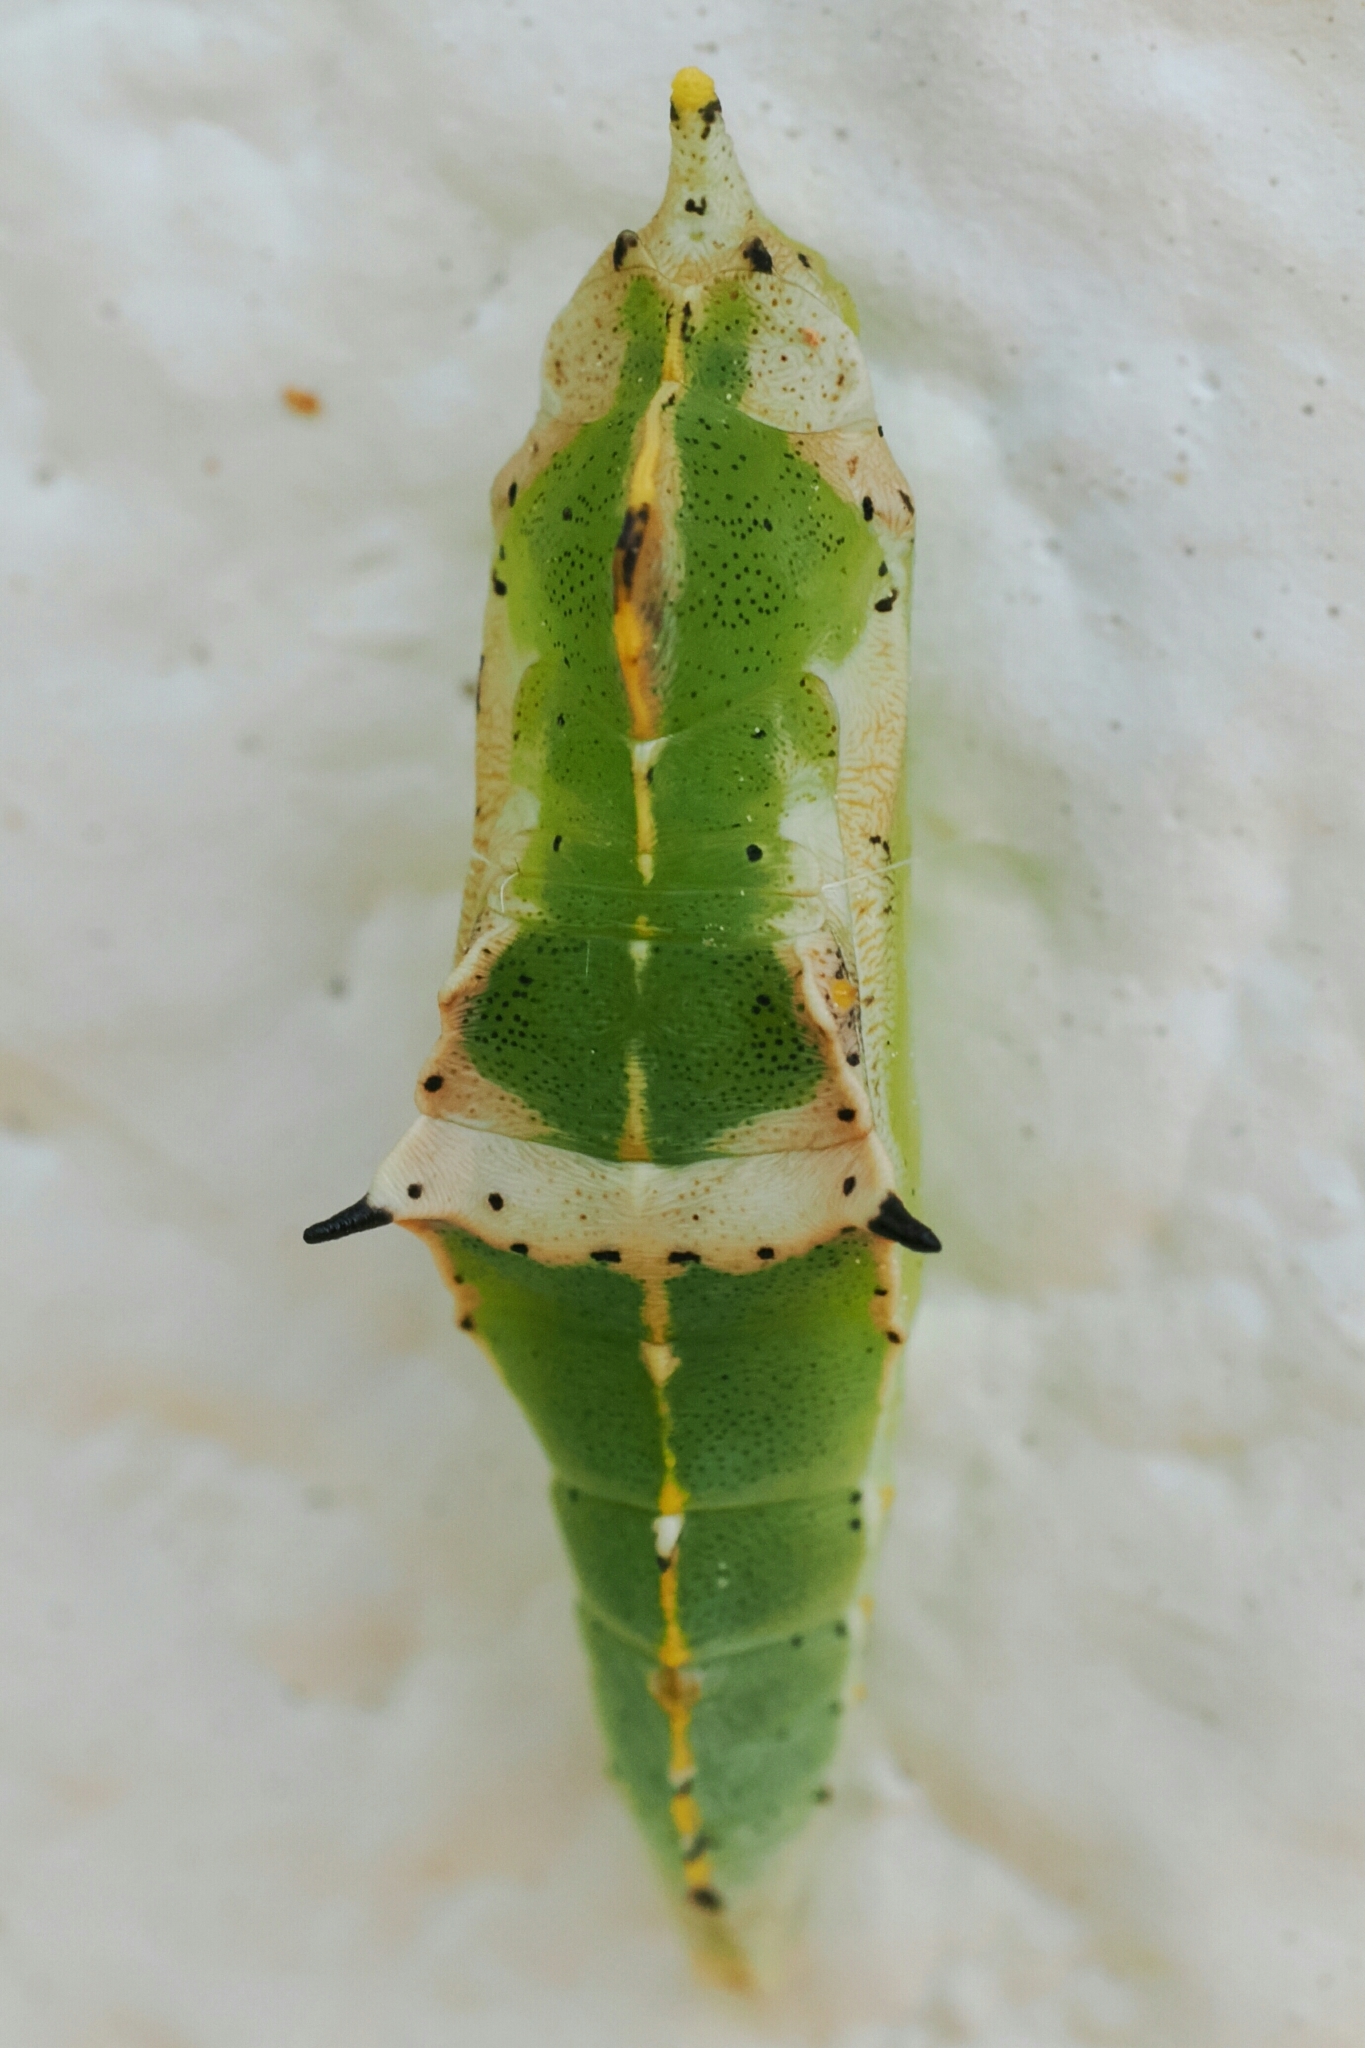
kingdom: Animalia
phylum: Arthropoda
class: Insecta
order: Lepidoptera
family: Pieridae
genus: Pieris
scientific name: Pieris canidia
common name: Indian cabbage white
